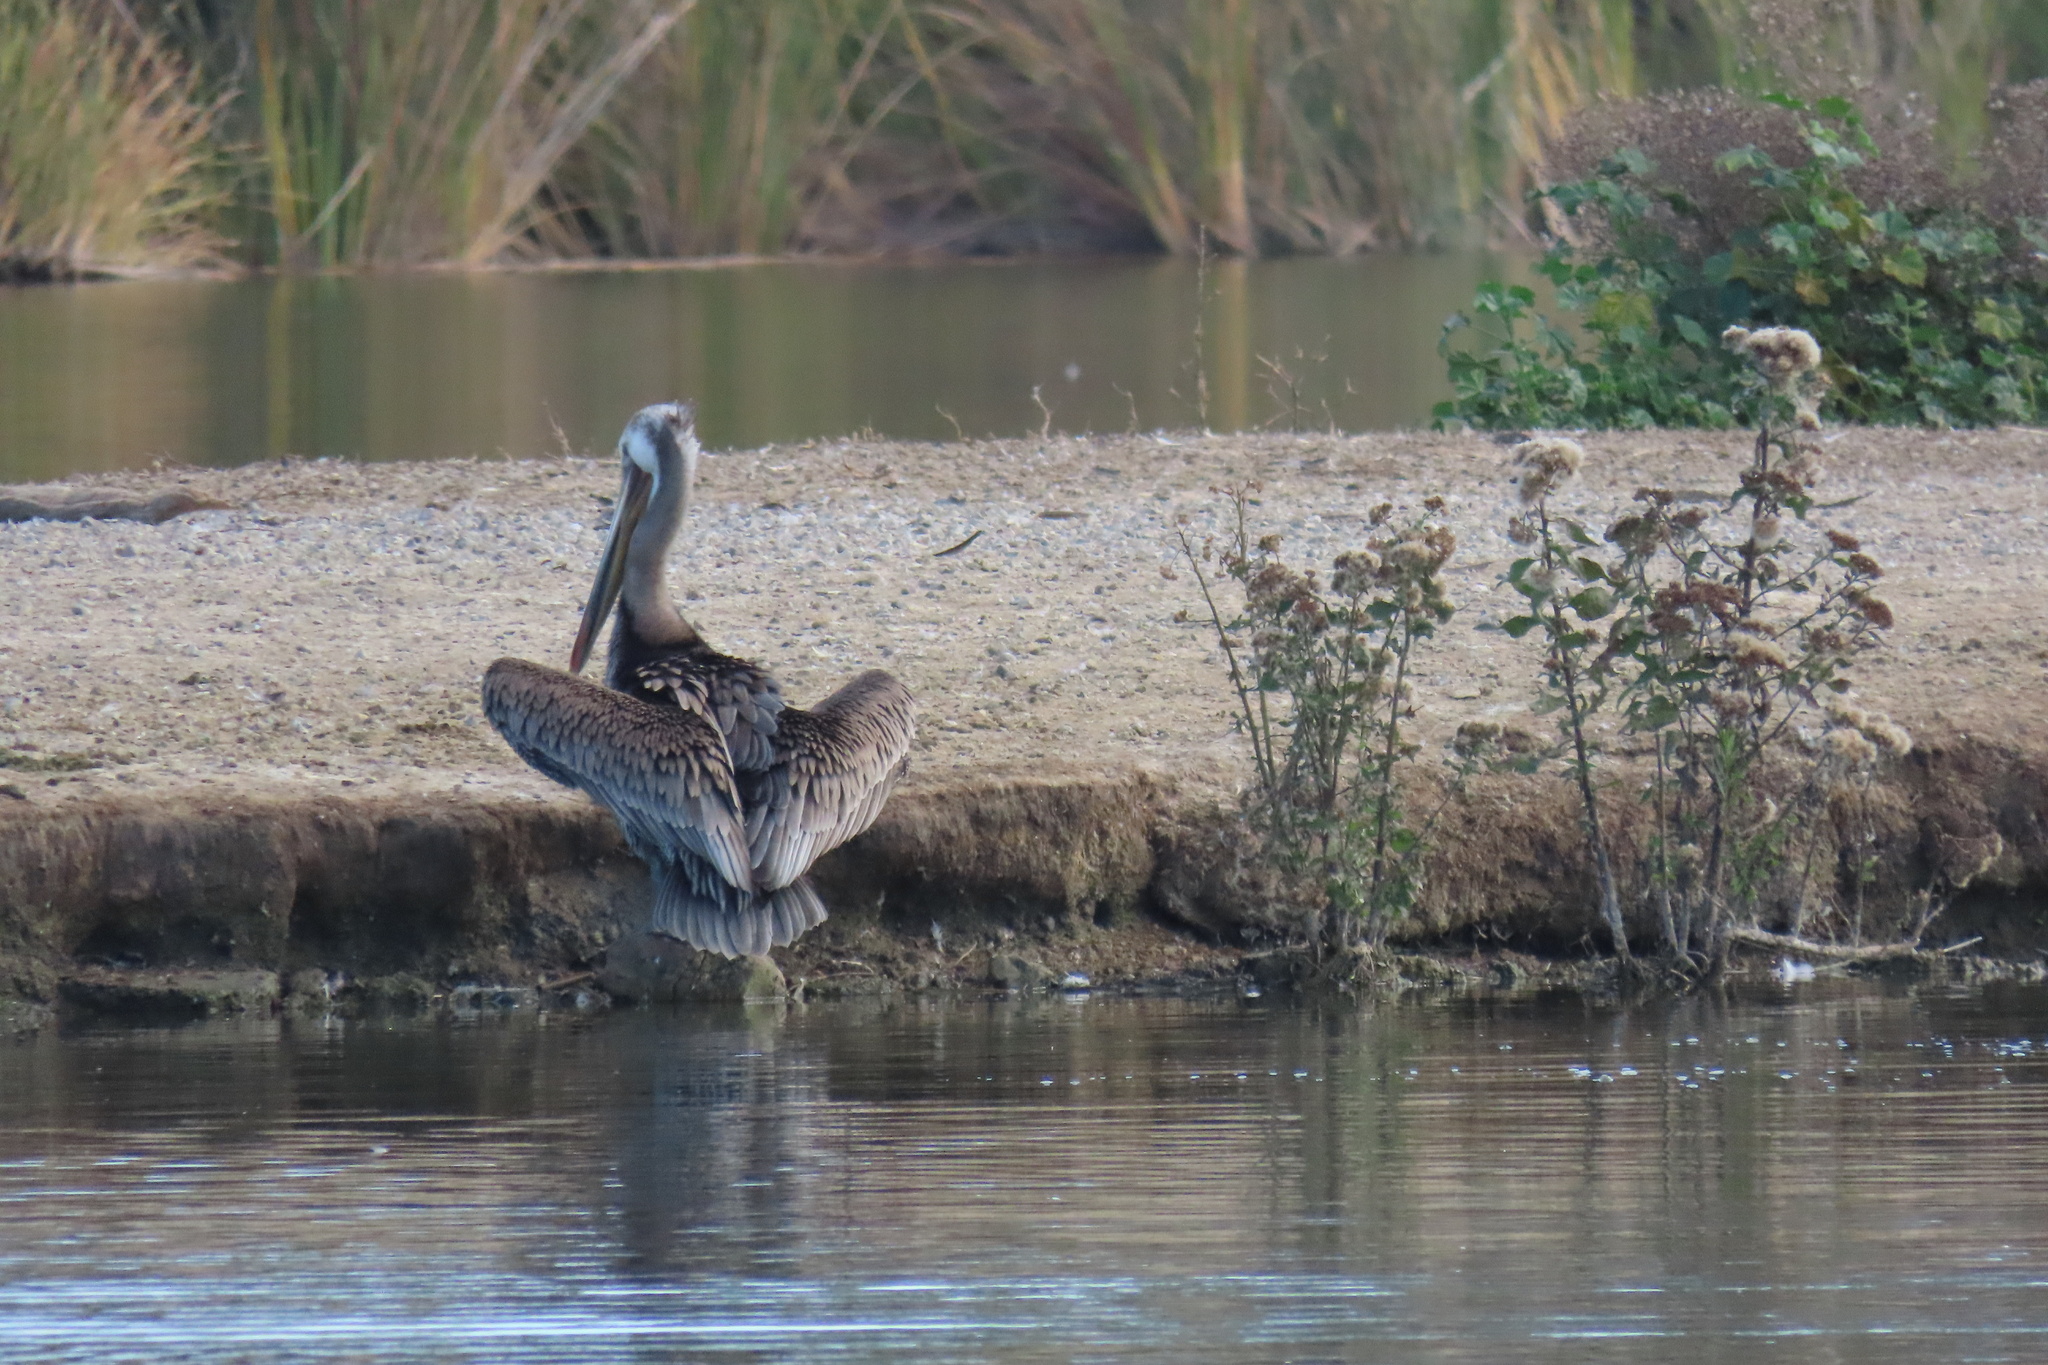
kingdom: Animalia
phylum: Chordata
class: Aves
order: Pelecaniformes
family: Pelecanidae
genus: Pelecanus
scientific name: Pelecanus occidentalis
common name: Brown pelican
